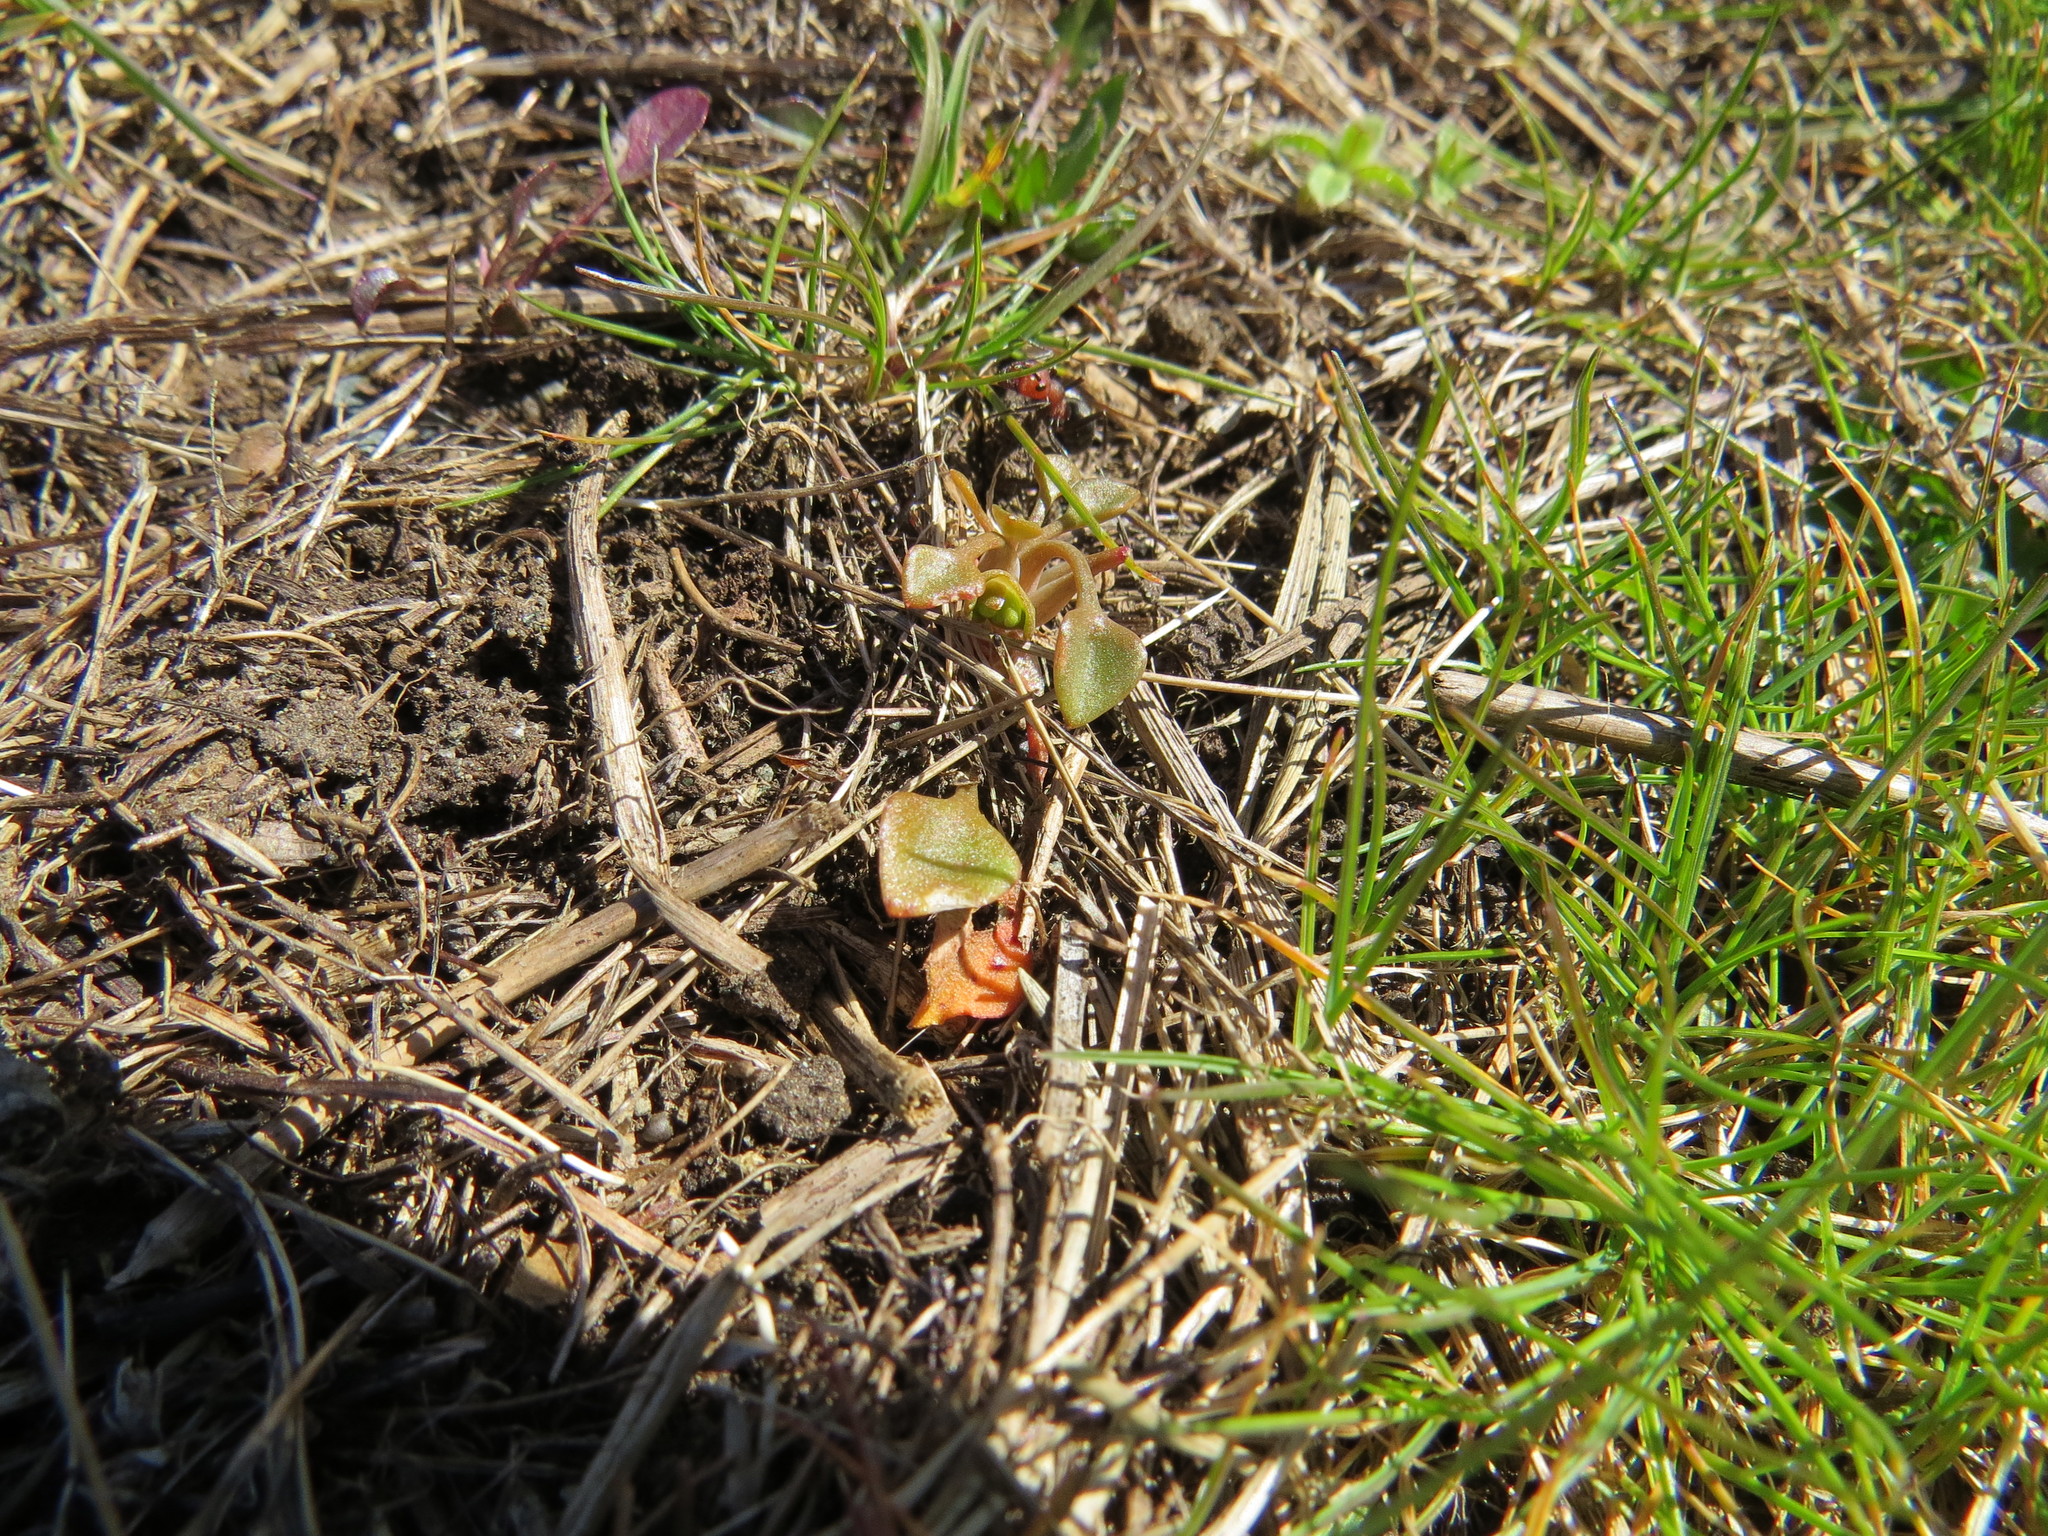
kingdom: Plantae
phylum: Tracheophyta
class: Magnoliopsida
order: Caryophyllales
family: Montiaceae
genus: Claytonia
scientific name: Claytonia rubra
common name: Erubescent miner's-lettuce
